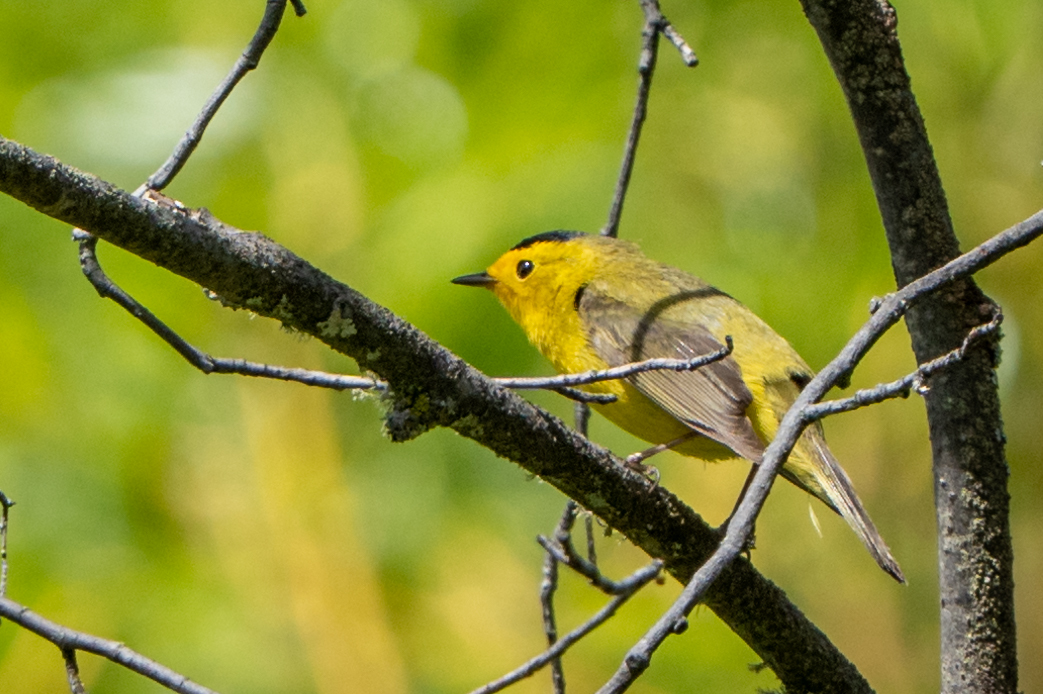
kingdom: Animalia
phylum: Chordata
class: Aves
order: Passeriformes
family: Parulidae
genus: Cardellina
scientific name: Cardellina pusilla
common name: Wilson's warbler
